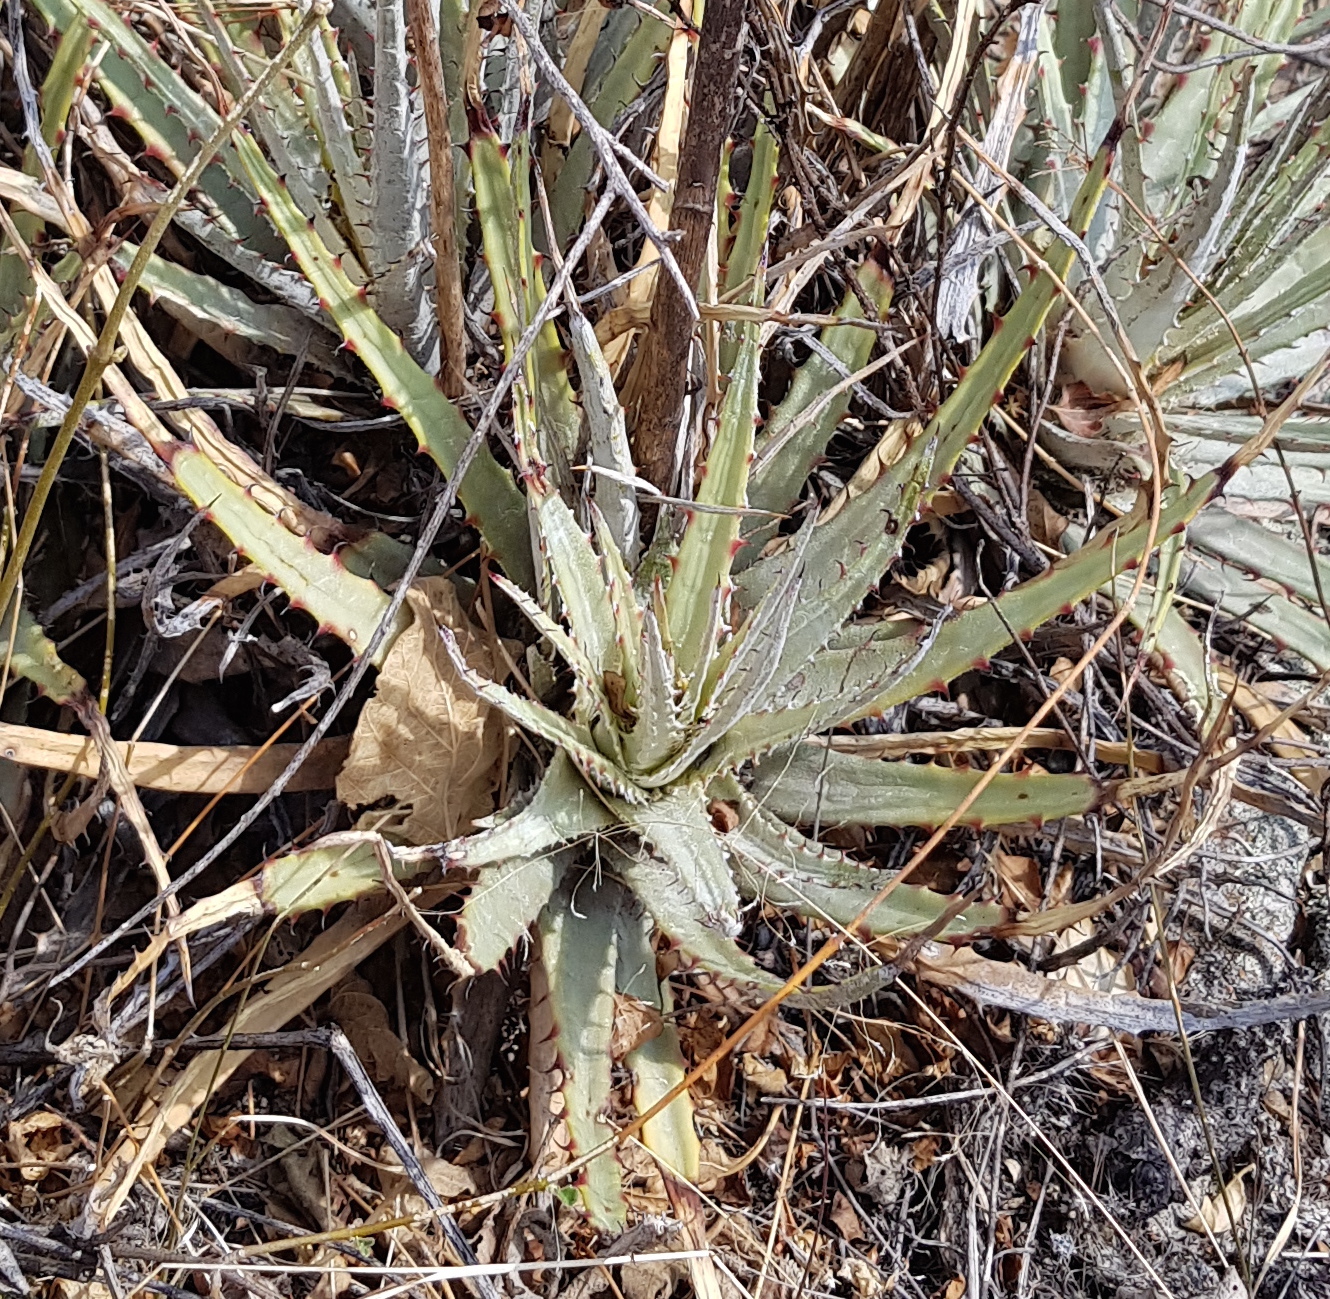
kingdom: Plantae
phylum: Tracheophyta
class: Liliopsida
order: Poales
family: Bromeliaceae
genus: Hechtia
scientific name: Hechtia pringlei
